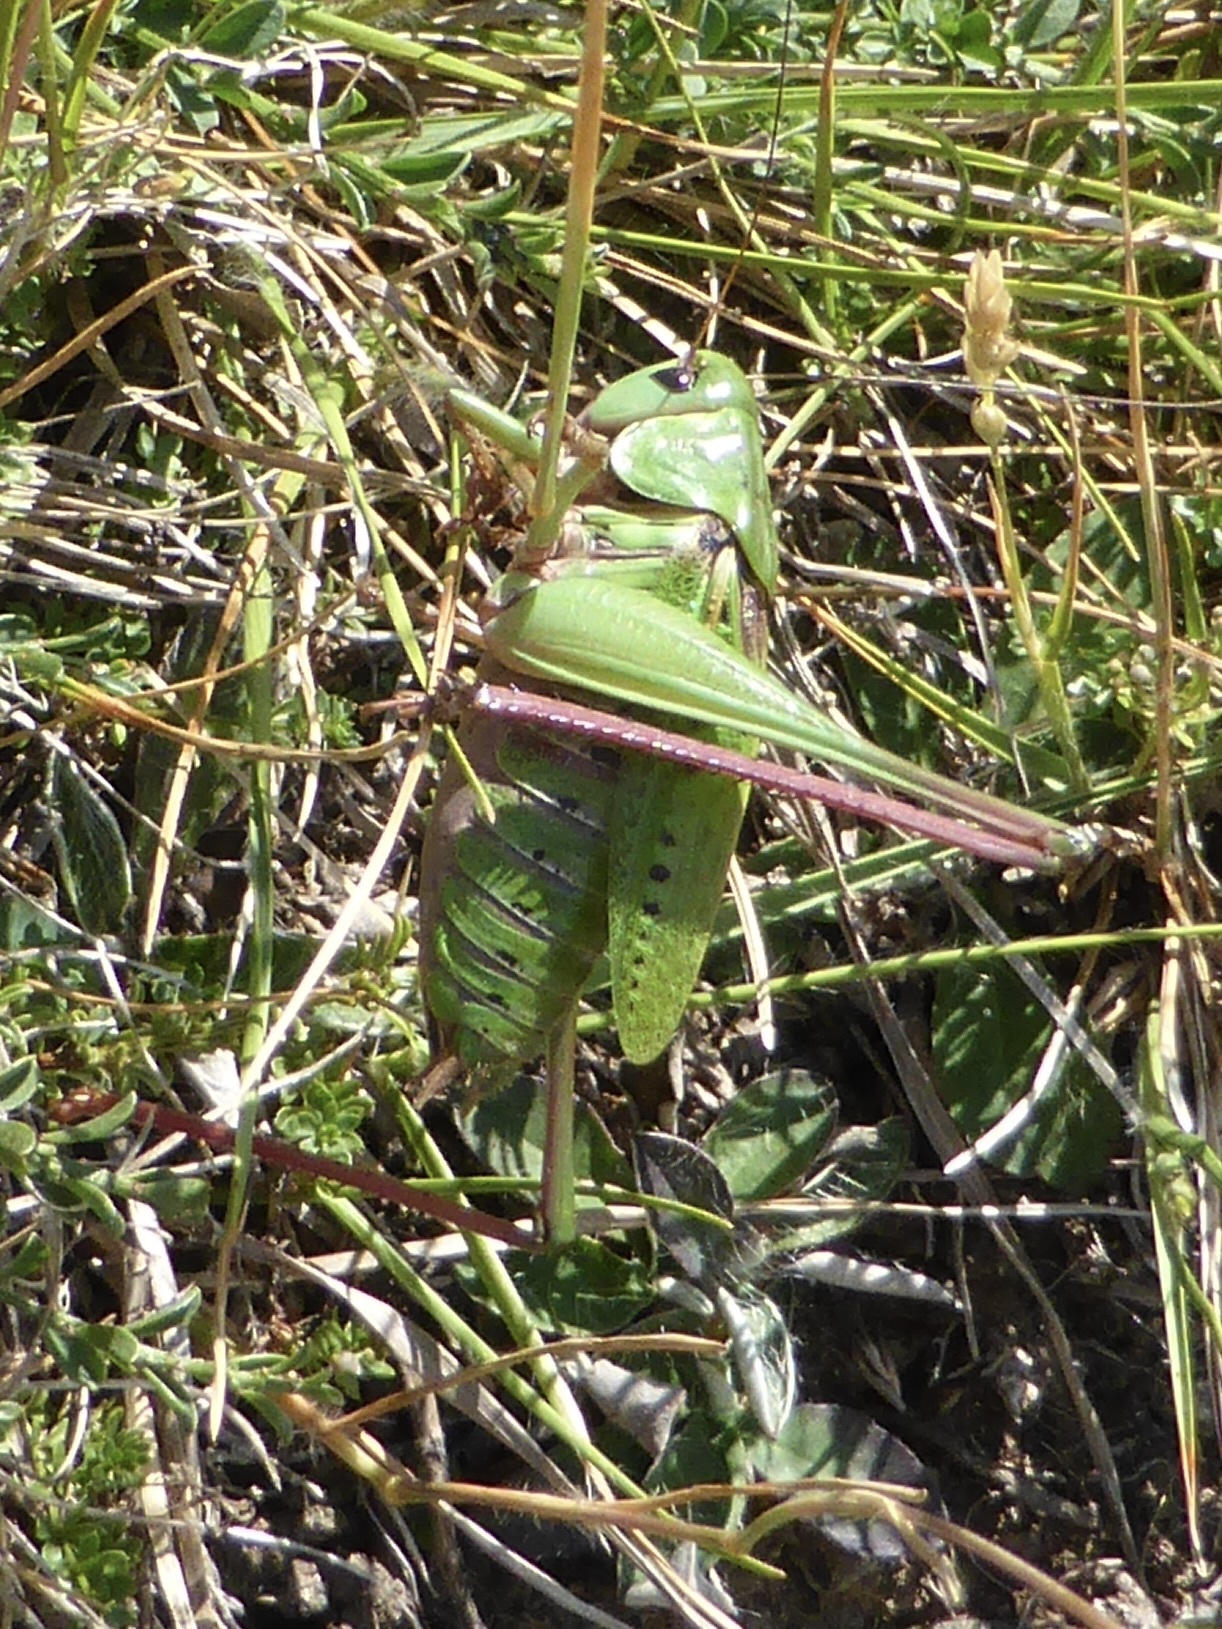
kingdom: Animalia
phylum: Arthropoda
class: Insecta
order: Orthoptera
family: Tettigoniidae
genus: Decticus
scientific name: Decticus verrucivorus
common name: Wart-biter
